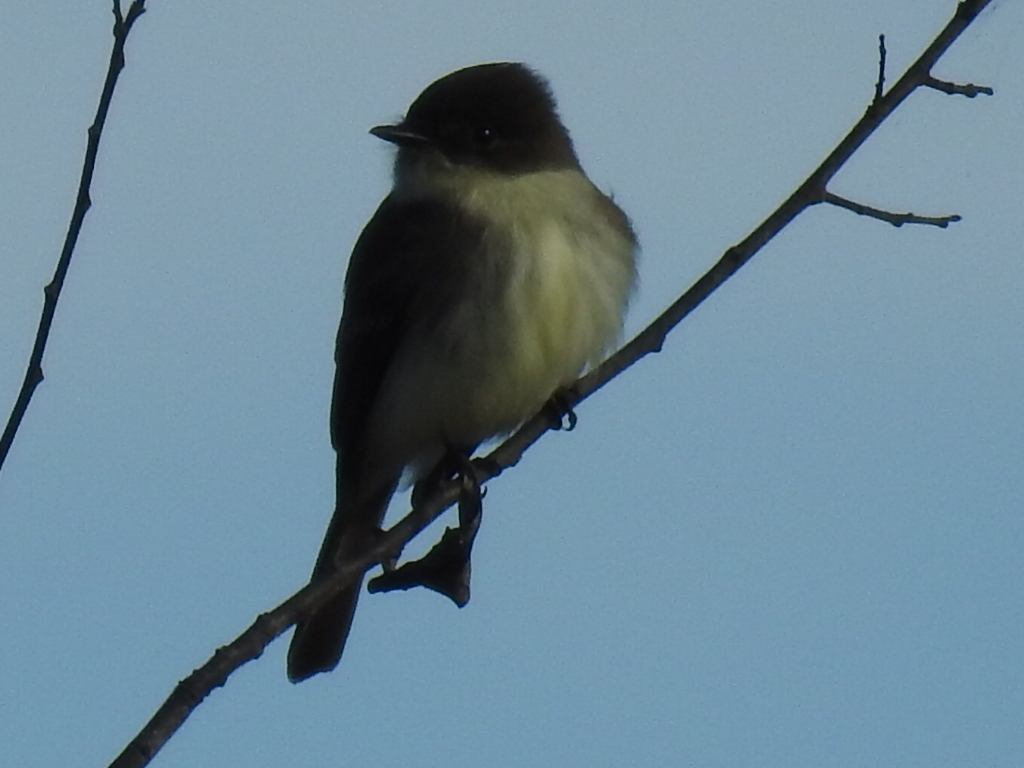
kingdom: Animalia
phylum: Chordata
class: Aves
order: Passeriformes
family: Tyrannidae
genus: Sayornis
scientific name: Sayornis phoebe
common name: Eastern phoebe
